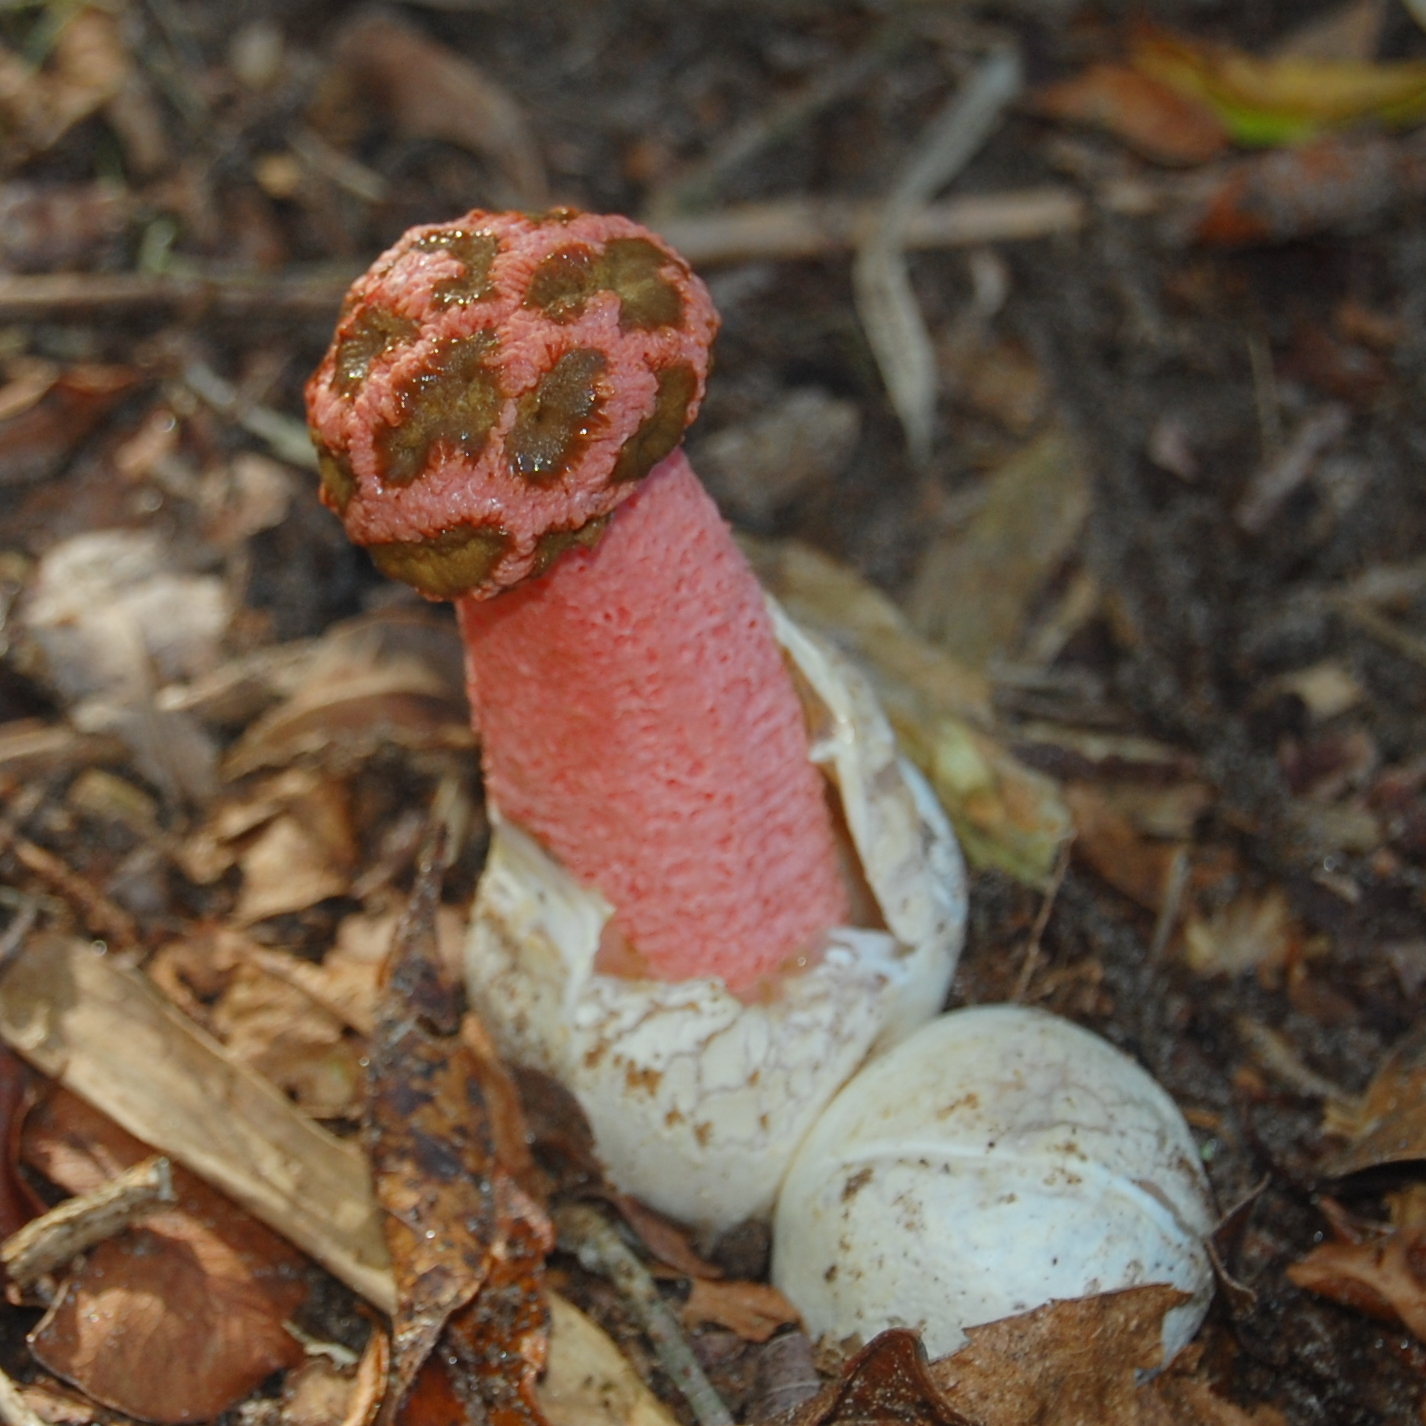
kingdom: Fungi
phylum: Basidiomycota
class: Agaricomycetes
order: Phallales
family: Phallaceae
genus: Lysurus
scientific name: Lysurus periphragmoides
